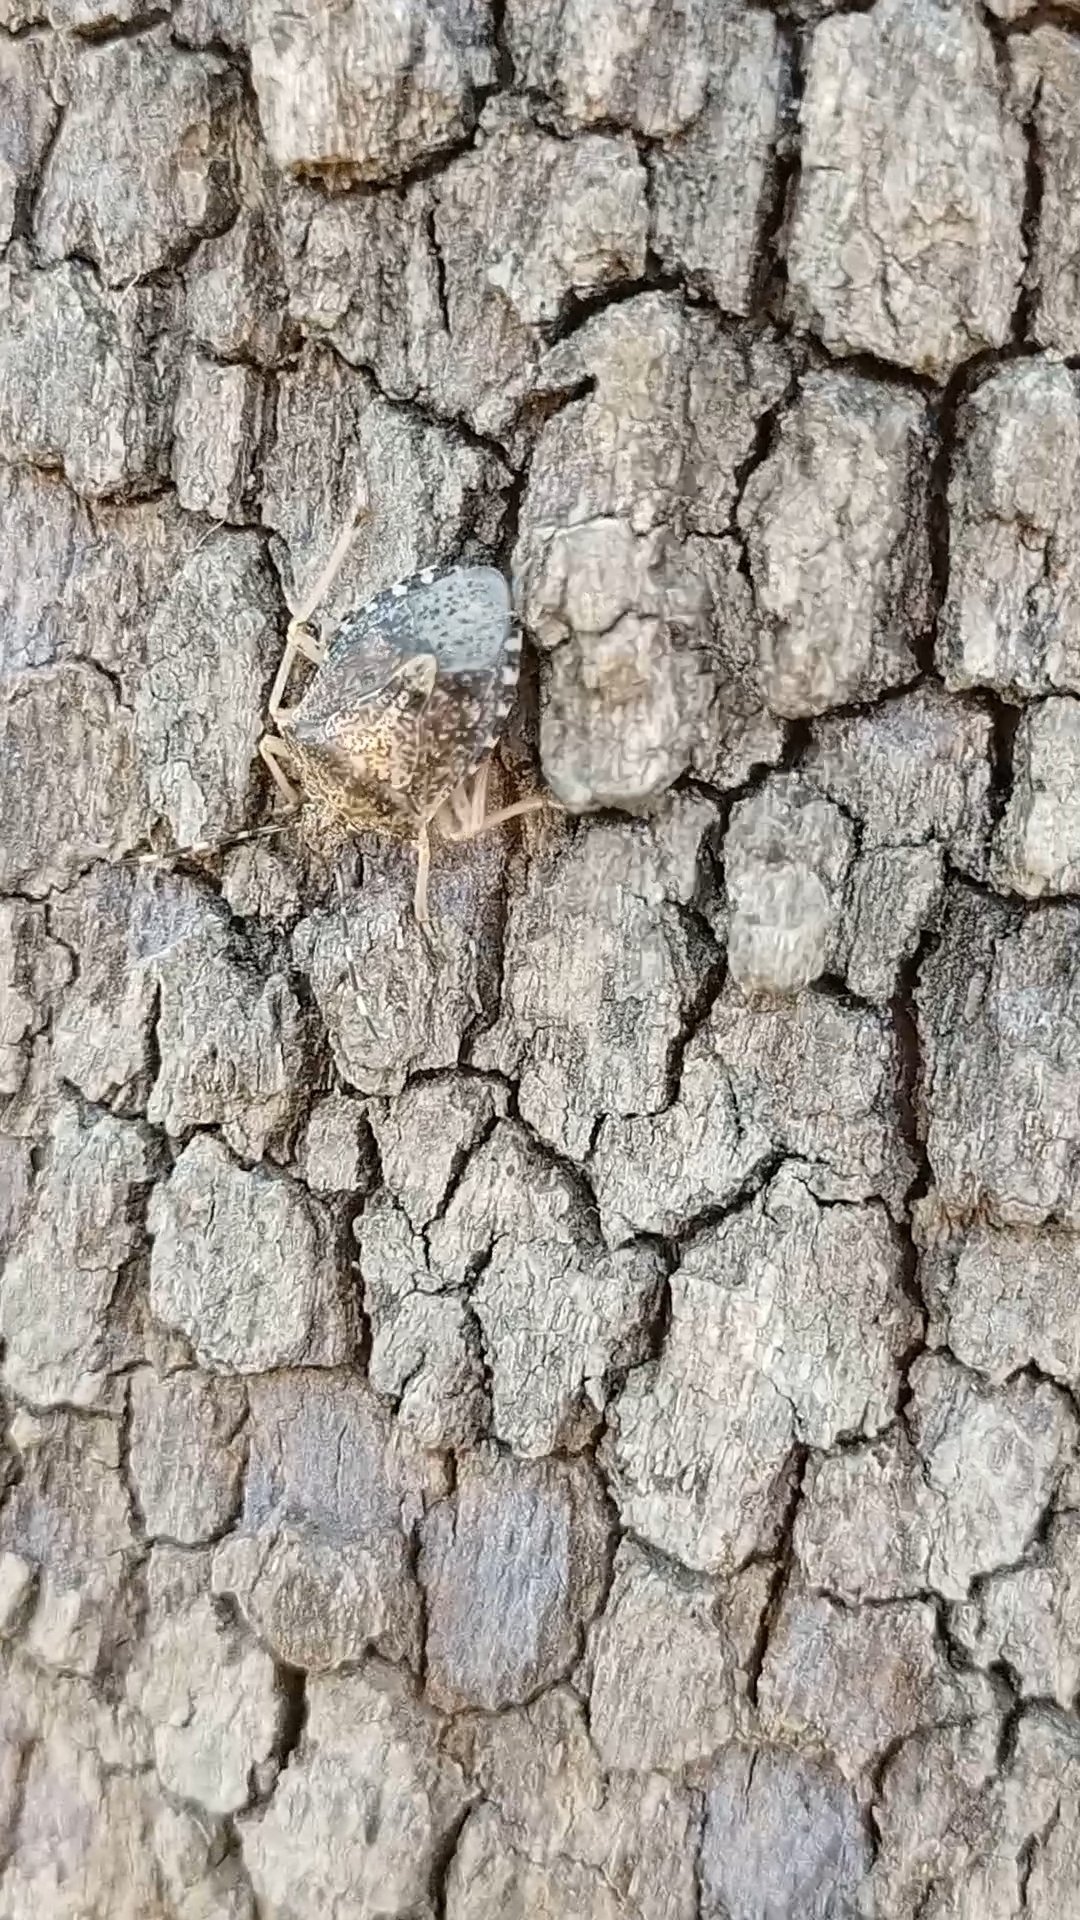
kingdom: Animalia
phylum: Arthropoda
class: Insecta
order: Hemiptera
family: Pentatomidae
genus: Rhaphigaster
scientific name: Rhaphigaster nebulosa
